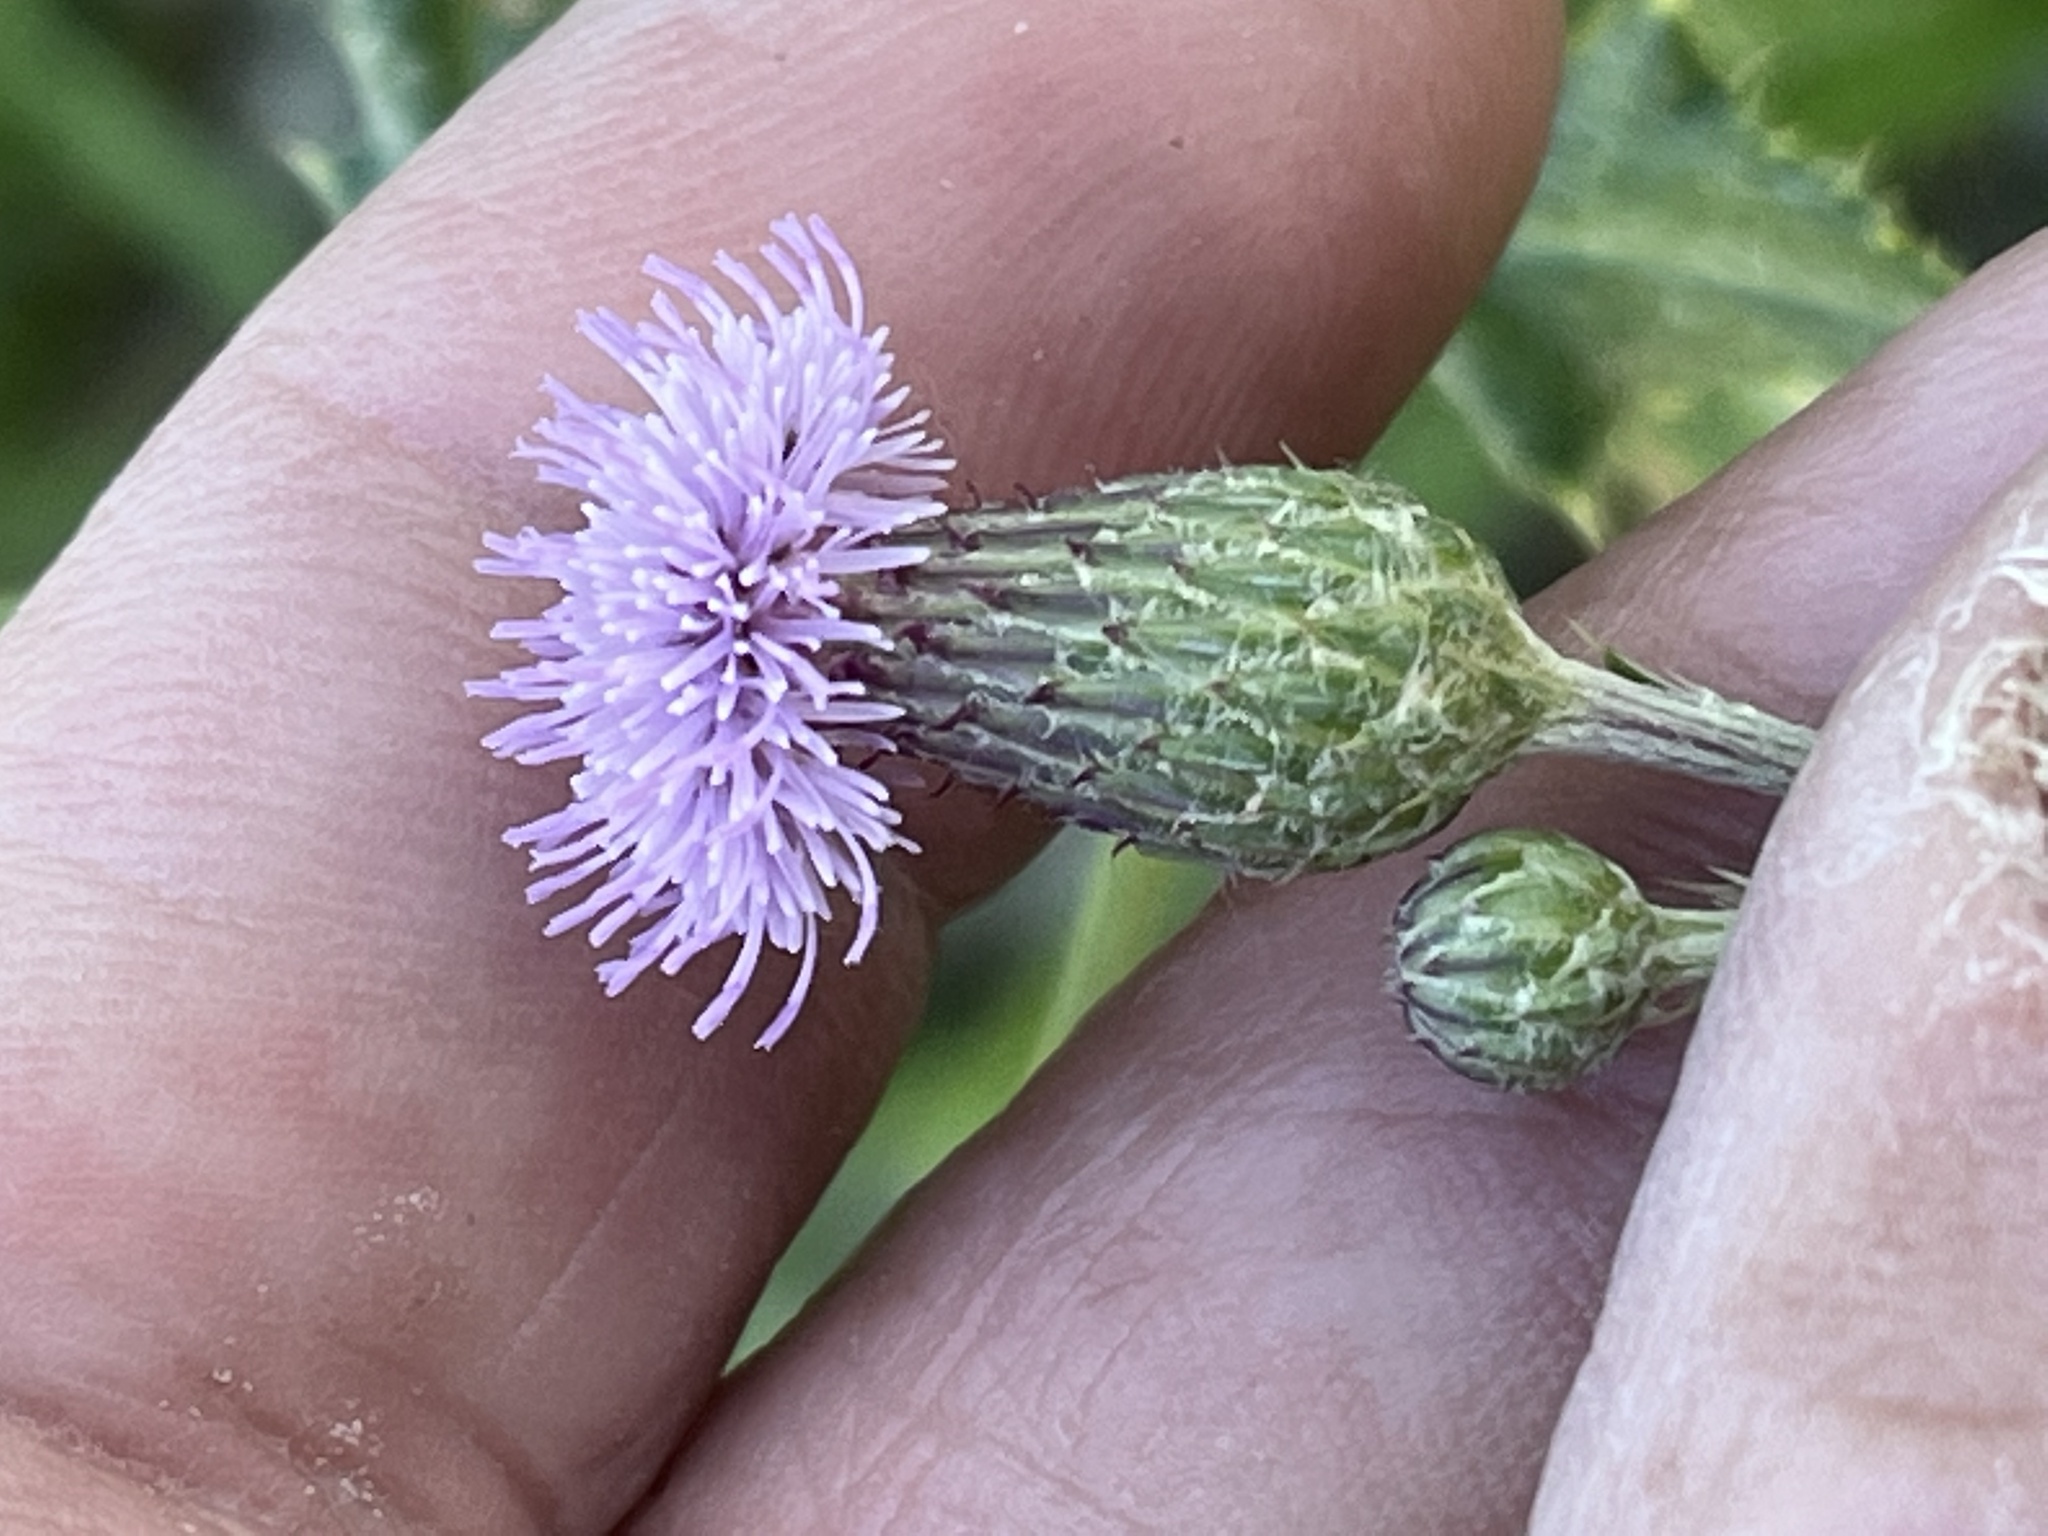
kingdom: Plantae
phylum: Tracheophyta
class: Magnoliopsida
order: Asterales
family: Asteraceae
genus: Cirsium
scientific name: Cirsium arvense
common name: Creeping thistle
